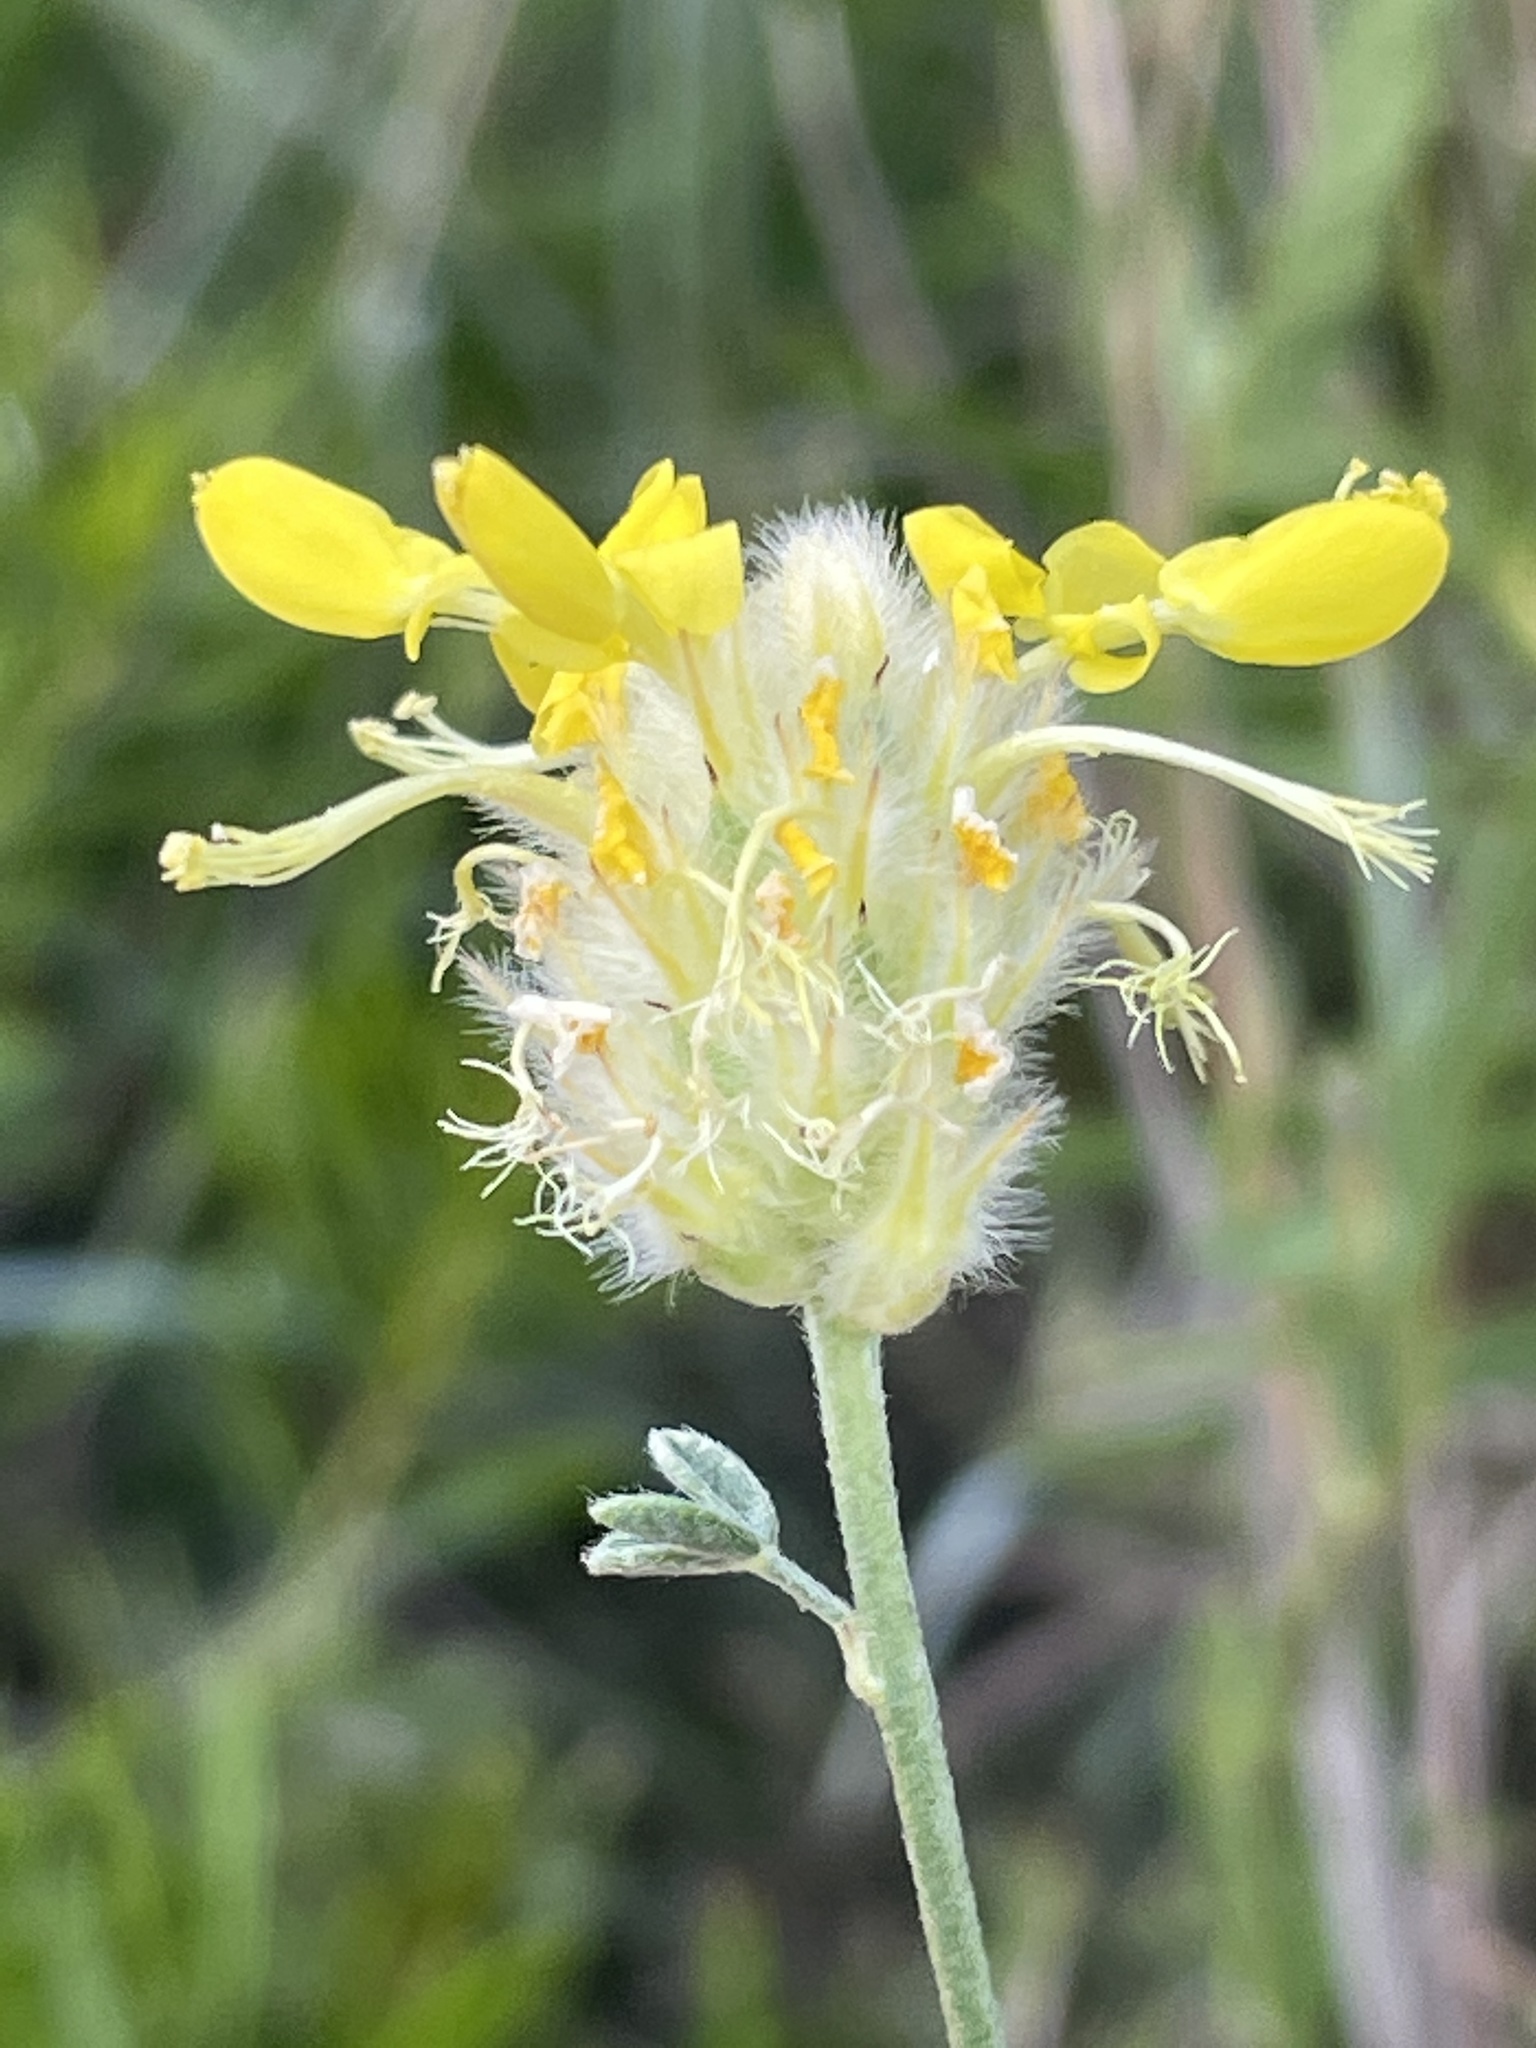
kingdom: Plantae
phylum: Tracheophyta
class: Magnoliopsida
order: Fabales
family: Fabaceae
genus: Dalea
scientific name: Dalea aurea
